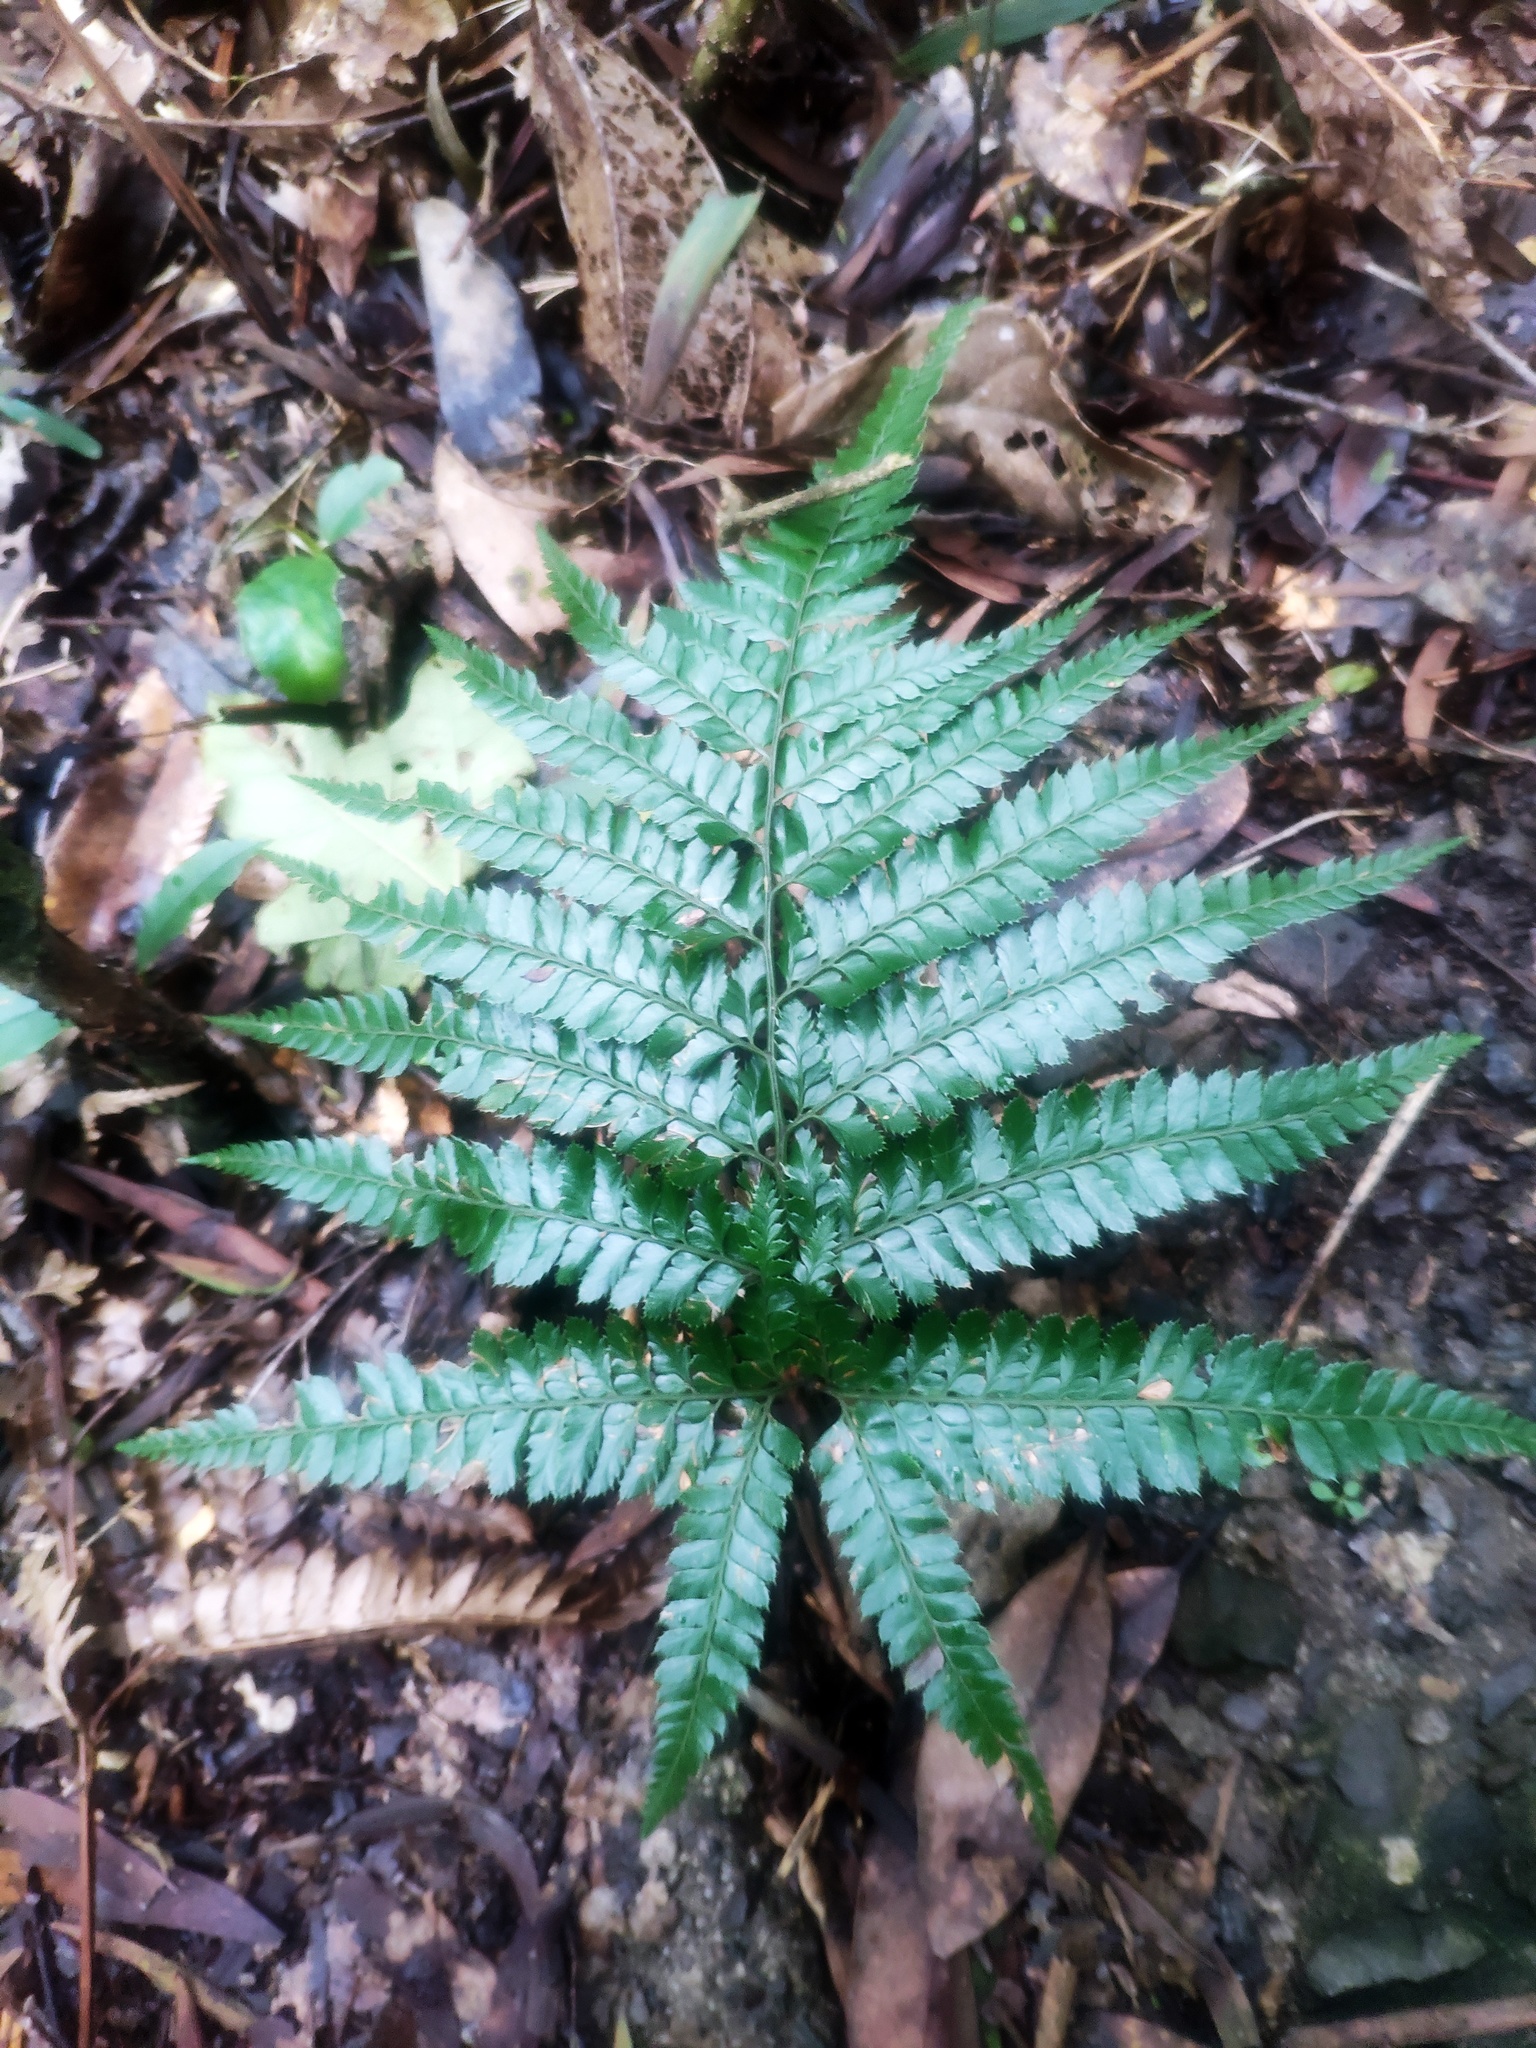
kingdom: Plantae
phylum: Tracheophyta
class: Polypodiopsida
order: Polypodiales
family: Dryopteridaceae
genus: Arachniodes
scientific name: Arachniodes aristata
